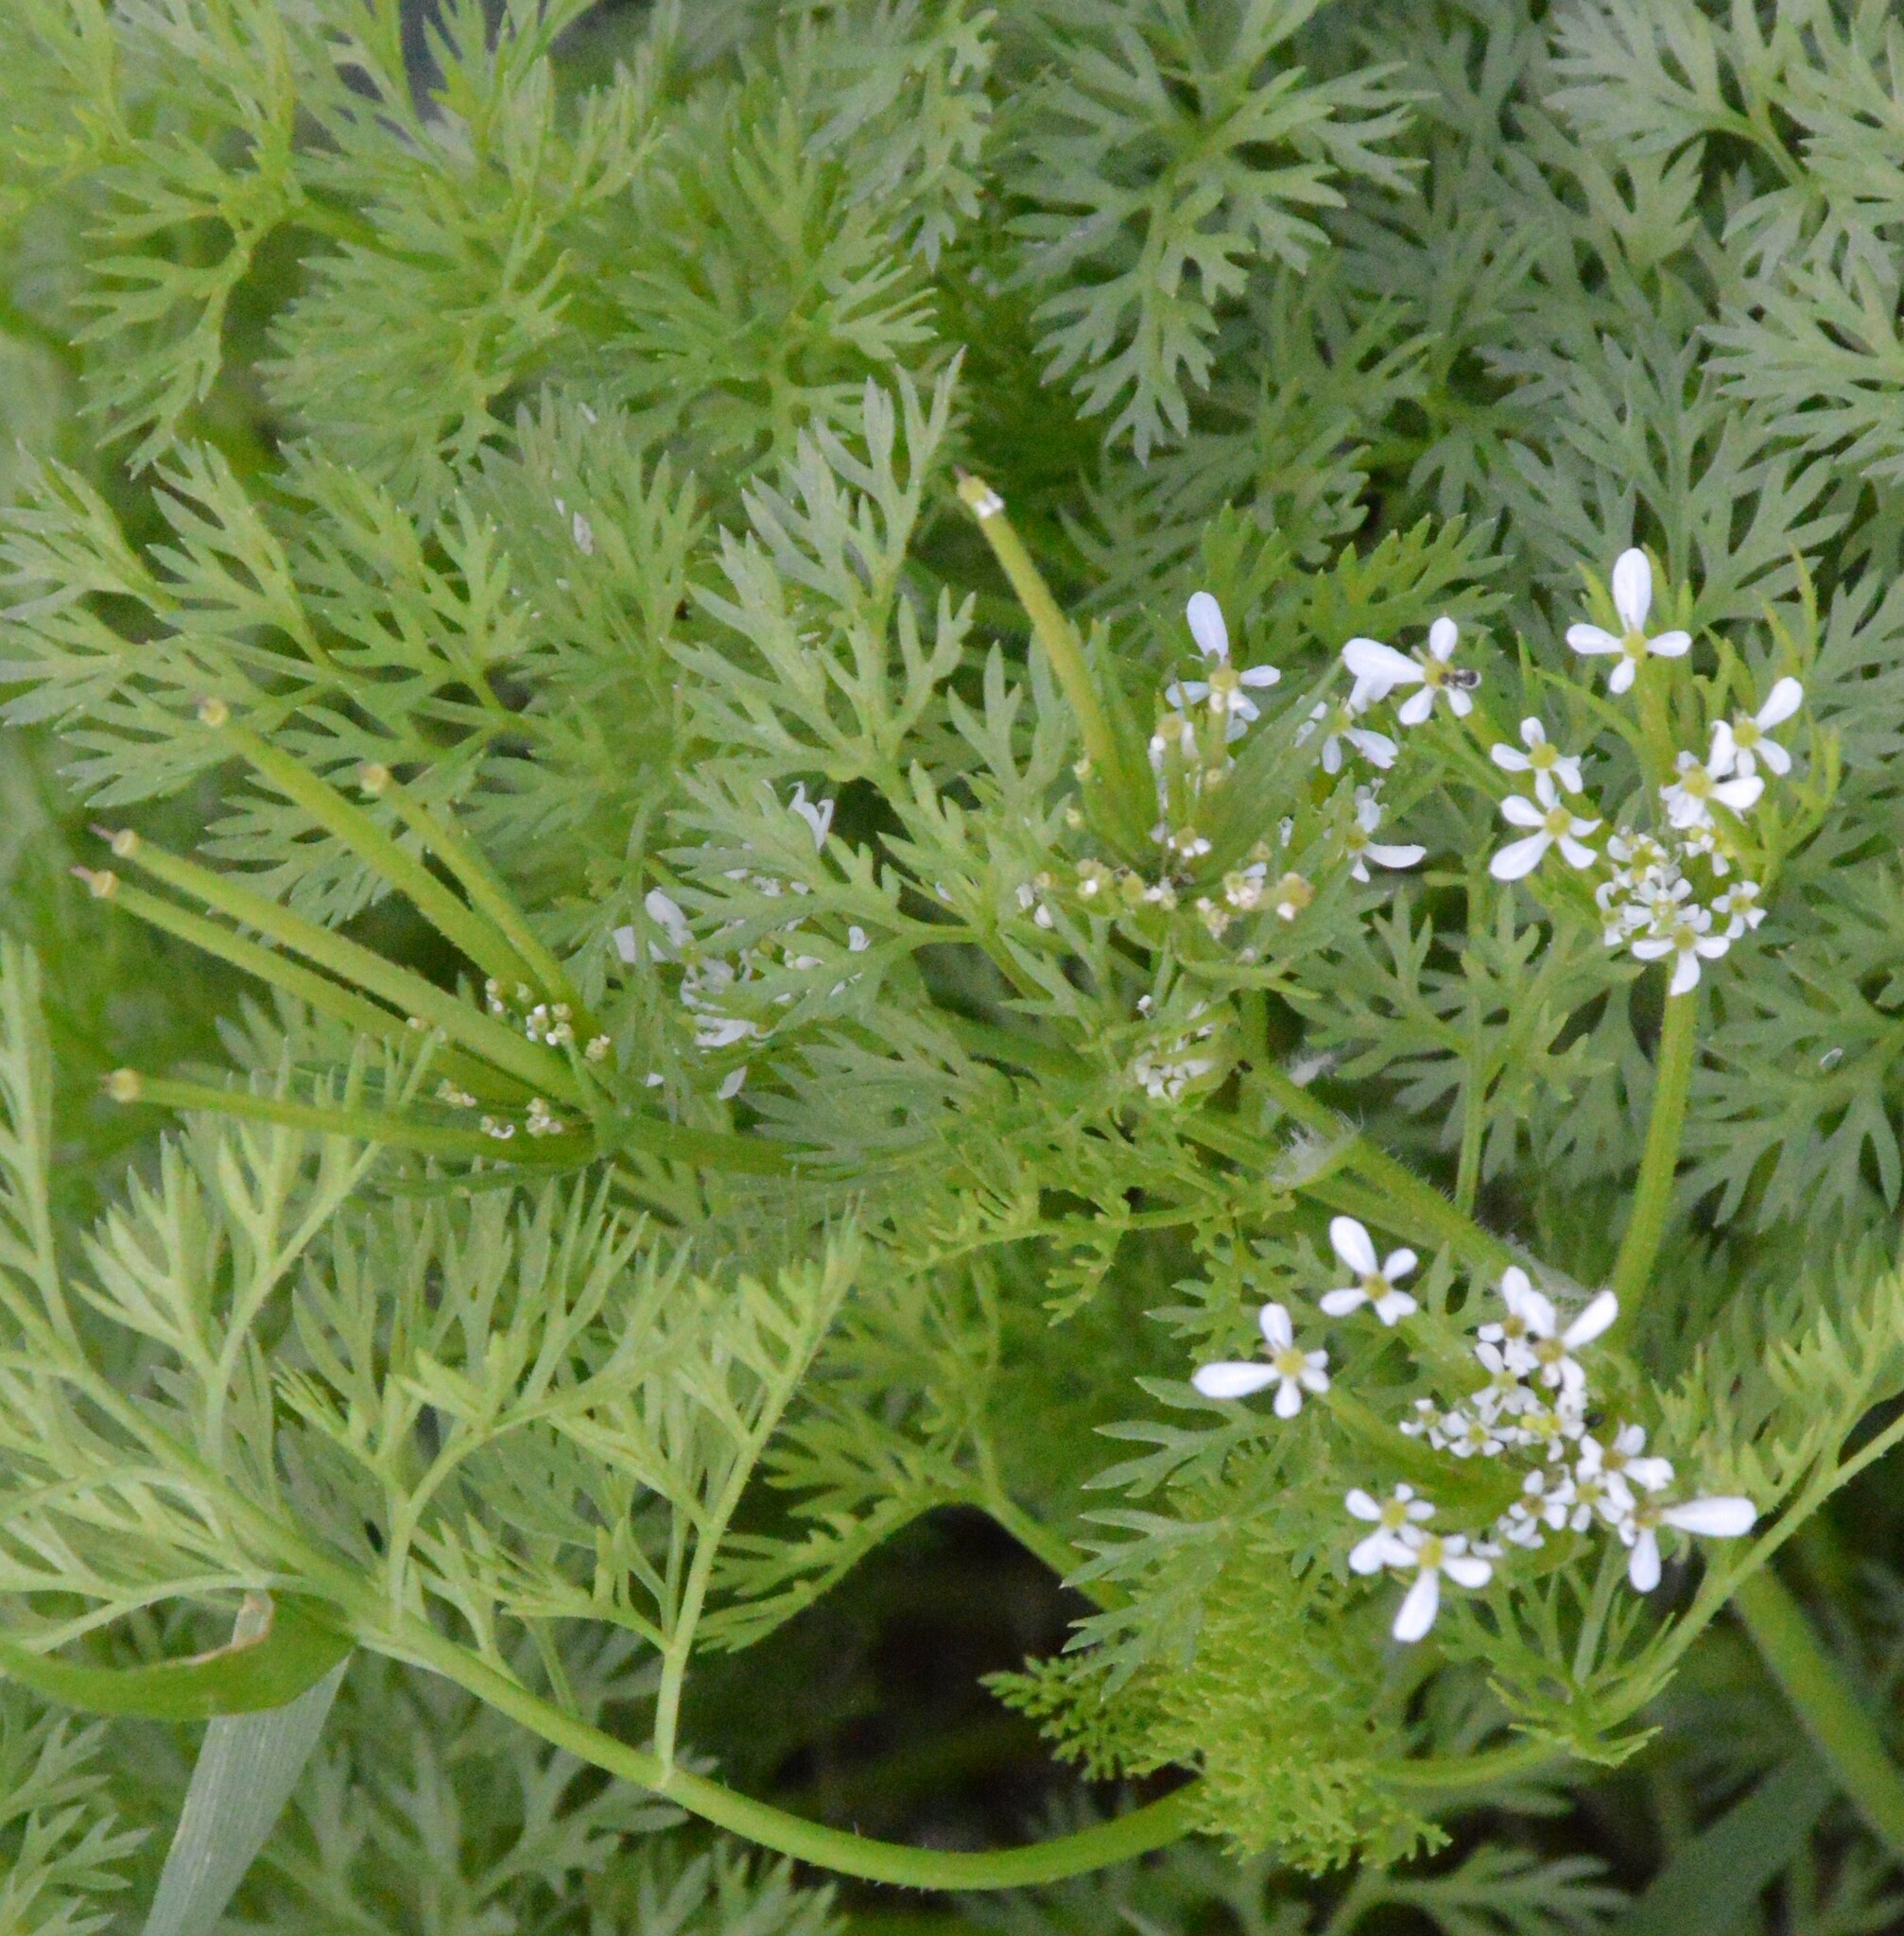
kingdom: Plantae
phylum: Tracheophyta
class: Magnoliopsida
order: Apiales
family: Apiaceae
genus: Scandix
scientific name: Scandix pecten-veneris
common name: Shepherd's-needle
